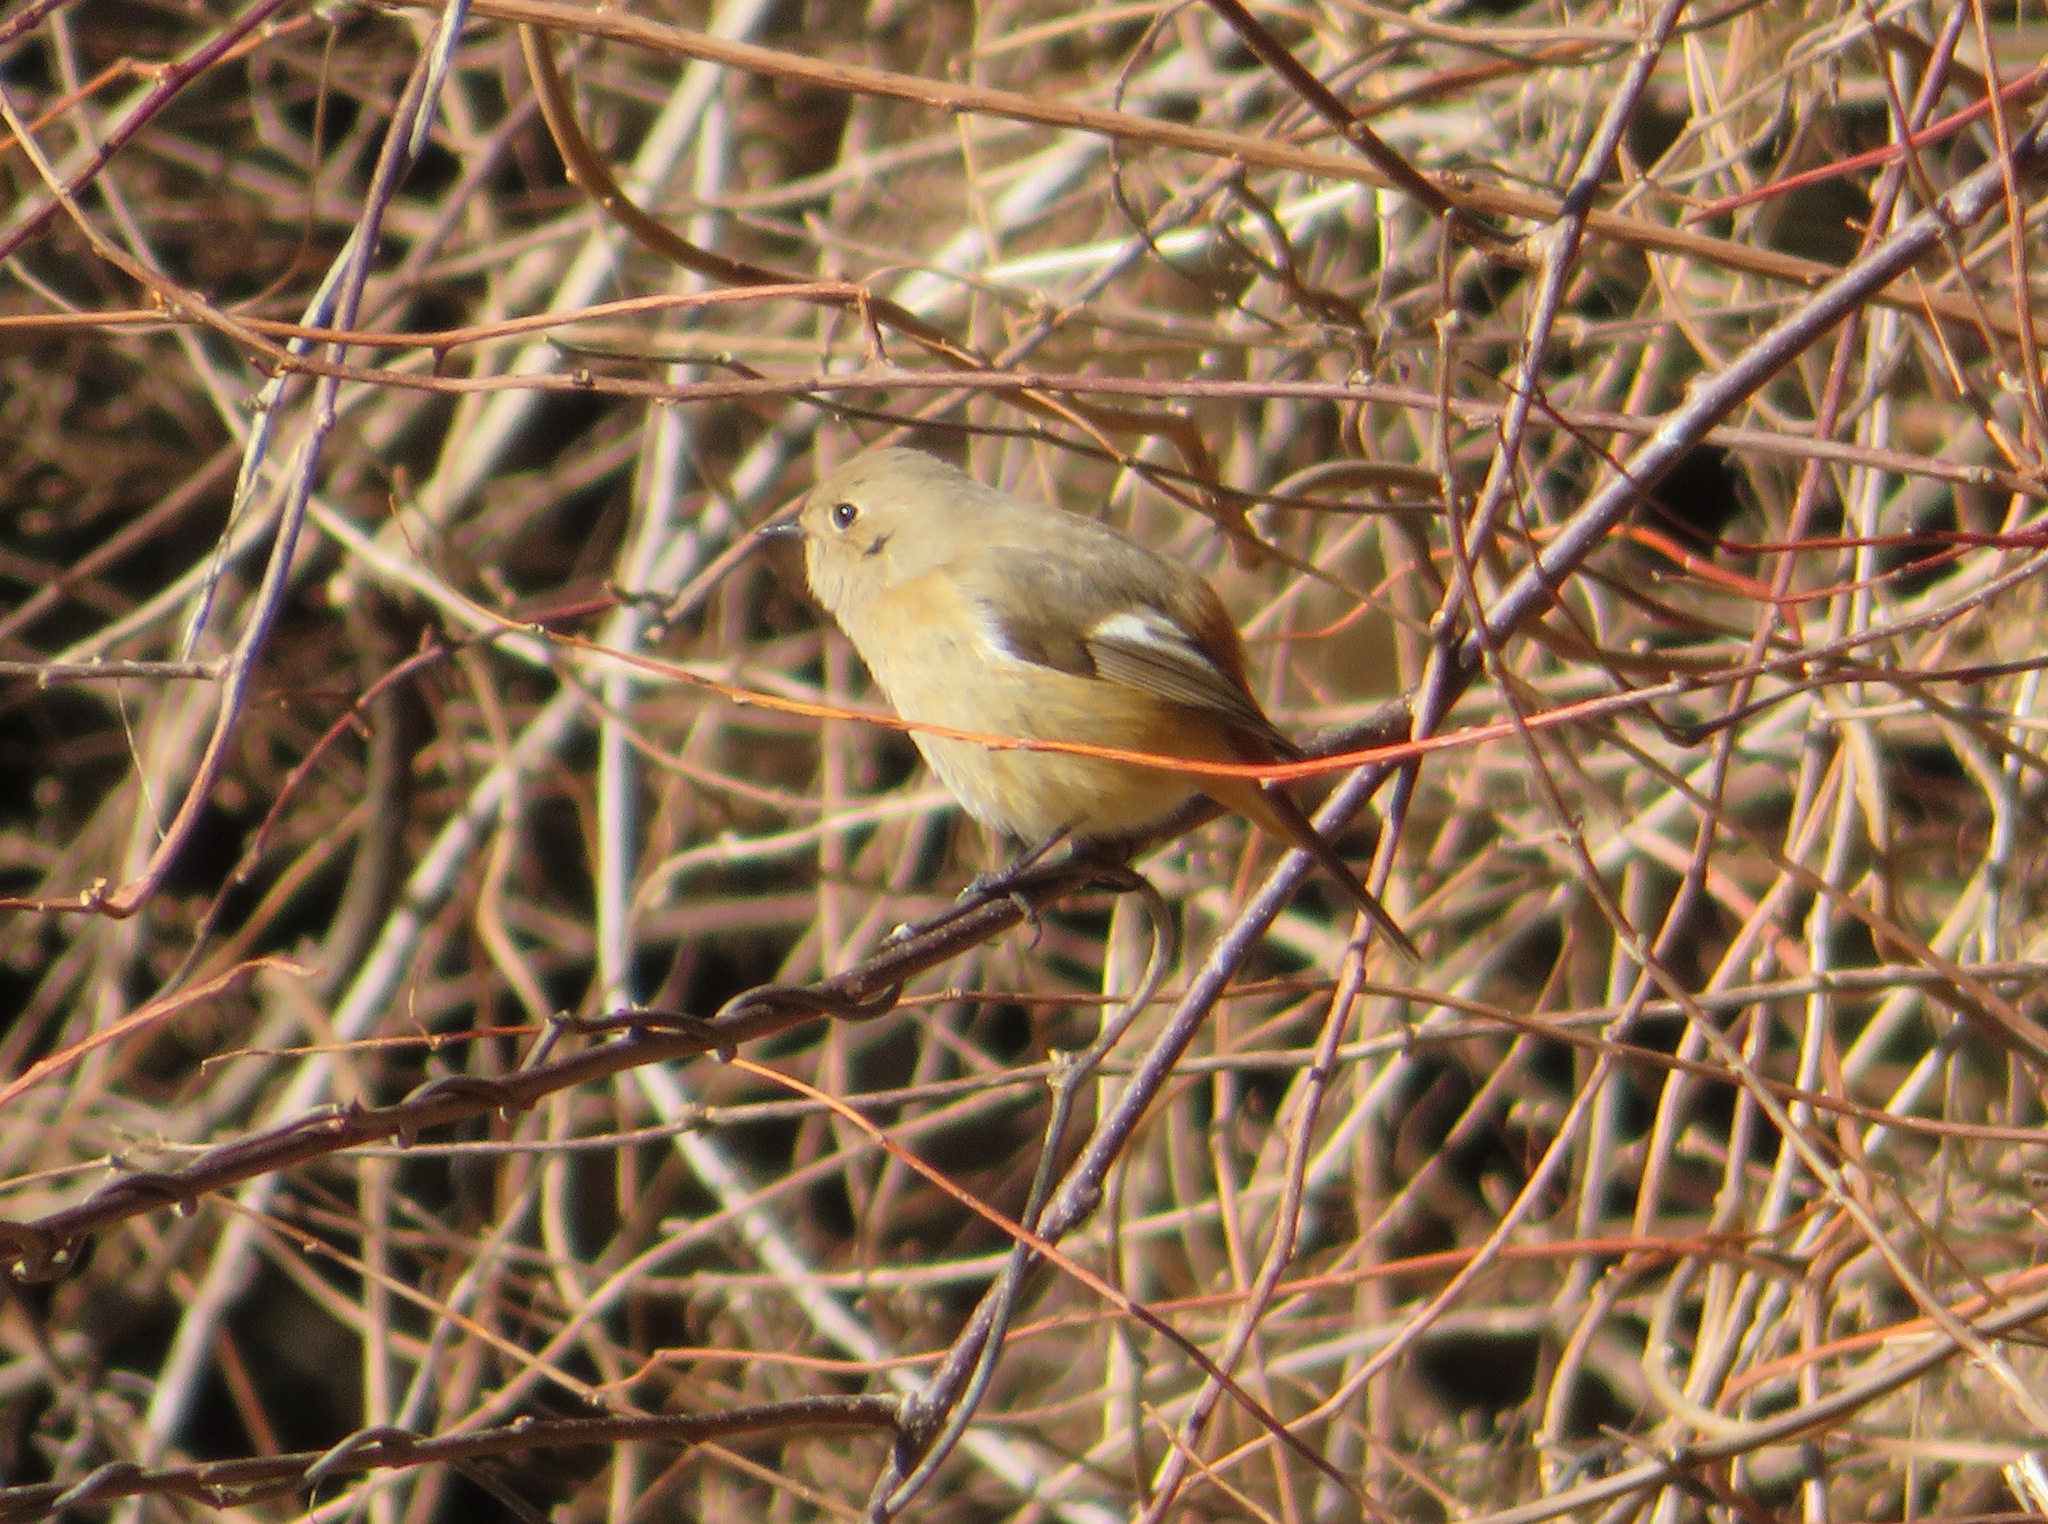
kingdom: Animalia
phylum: Chordata
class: Aves
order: Passeriformes
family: Muscicapidae
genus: Phoenicurus
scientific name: Phoenicurus auroreus
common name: Daurian redstart
